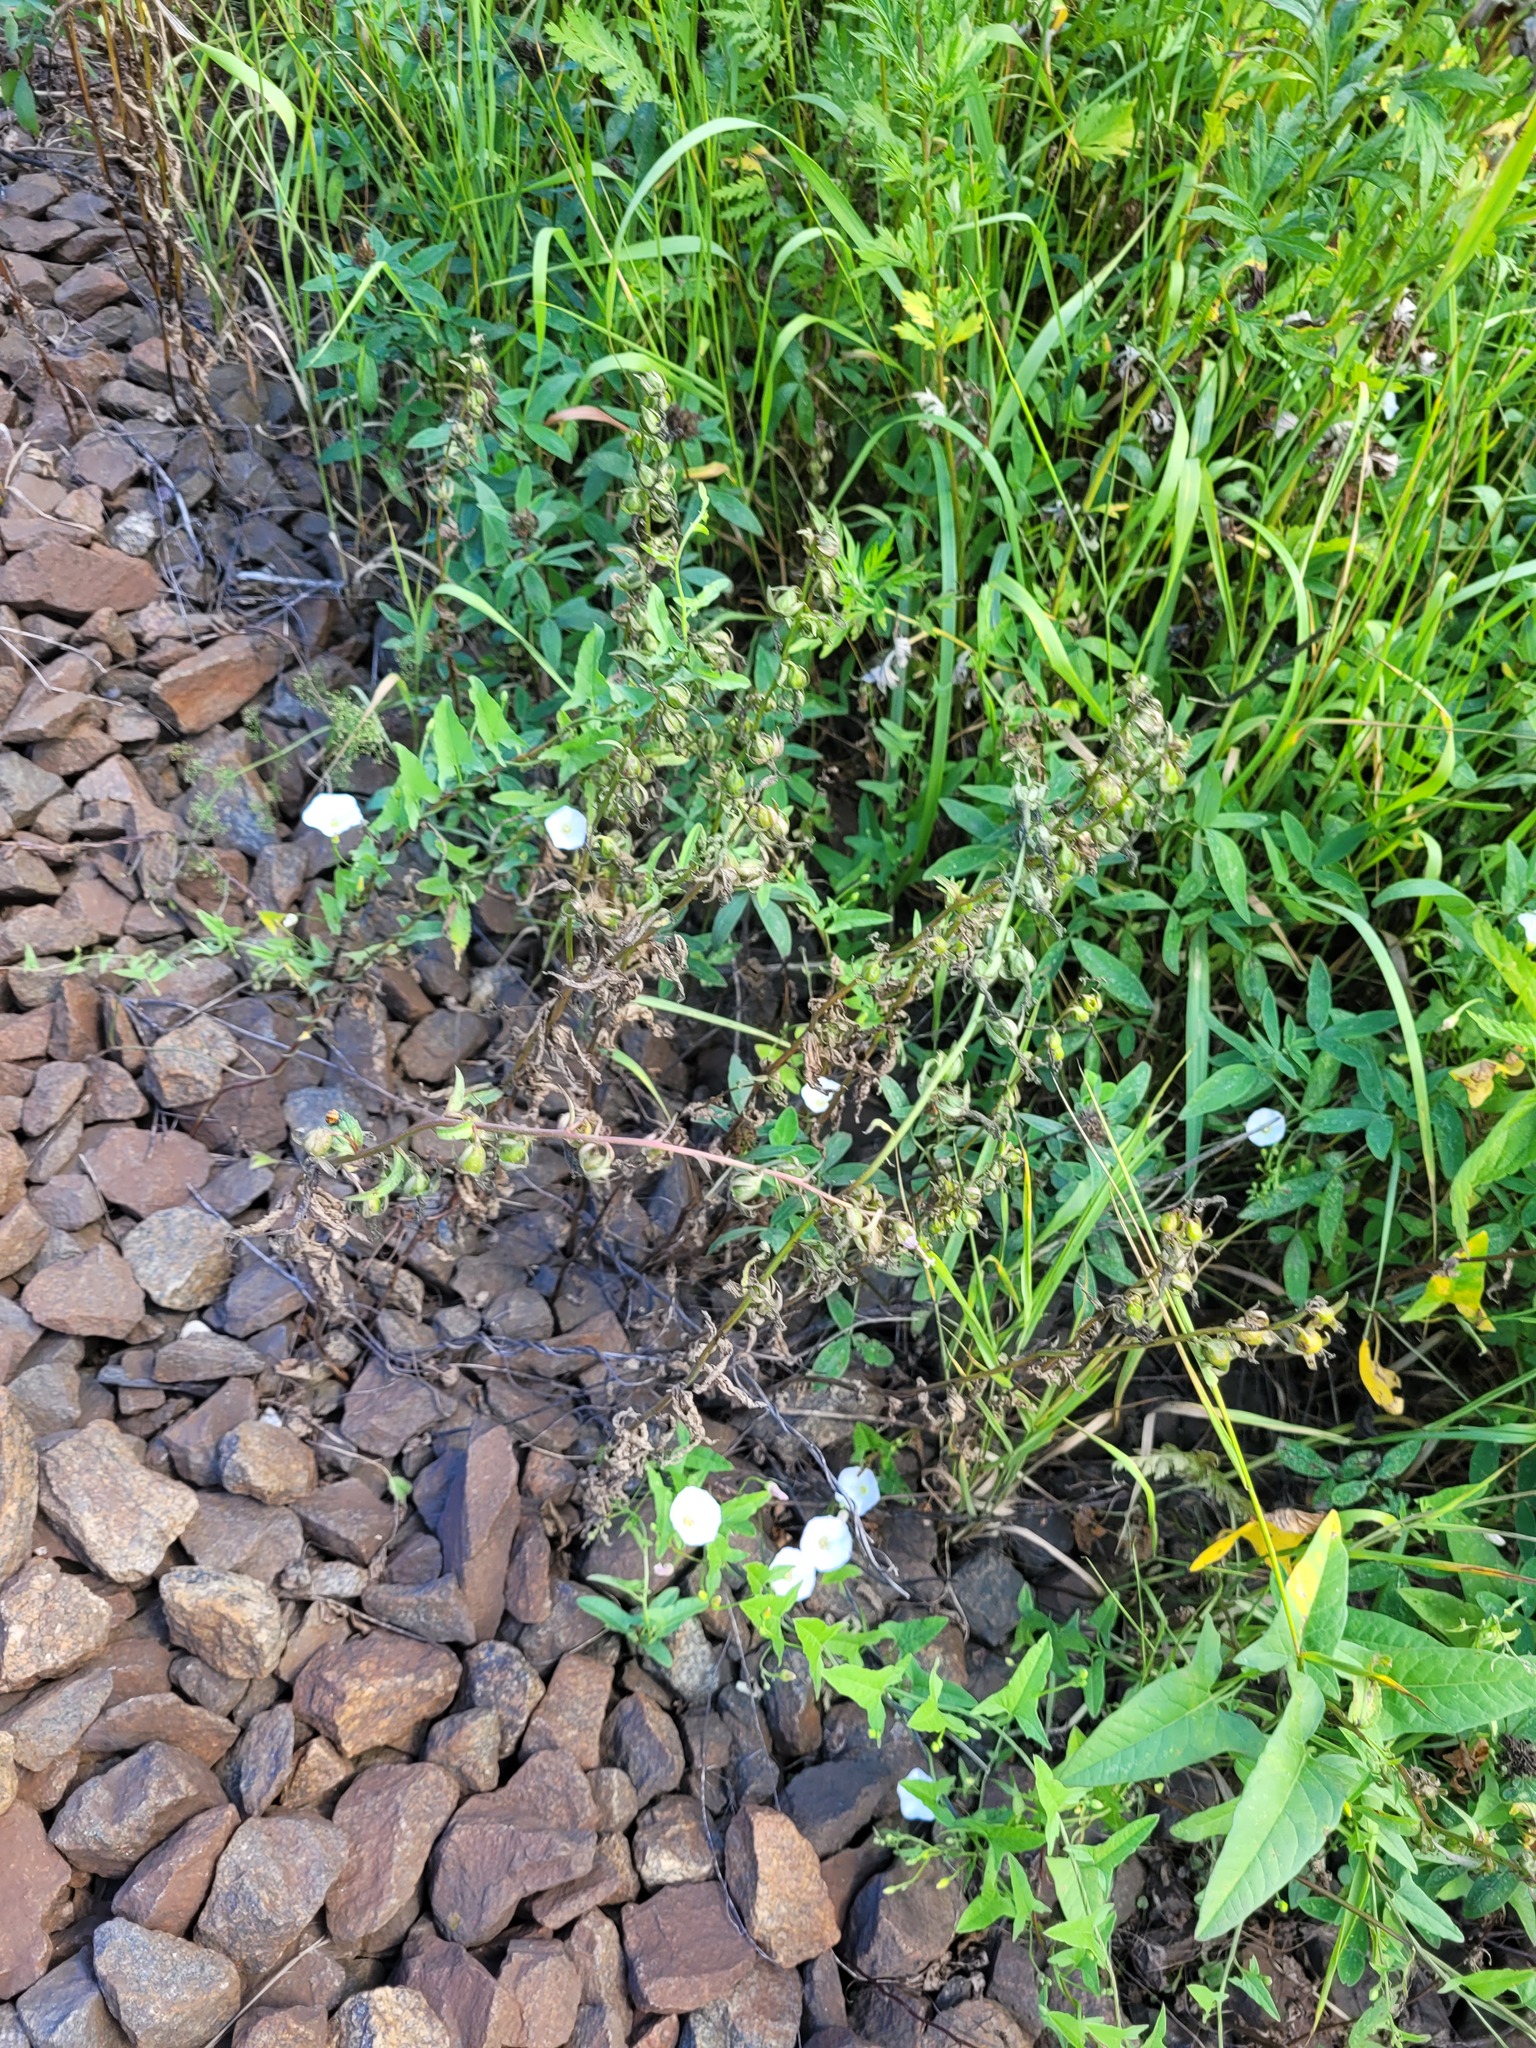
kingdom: Plantae
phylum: Tracheophyta
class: Magnoliopsida
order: Asterales
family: Campanulaceae
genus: Campanula
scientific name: Campanula rapunculoides
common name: Creeping bellflower
